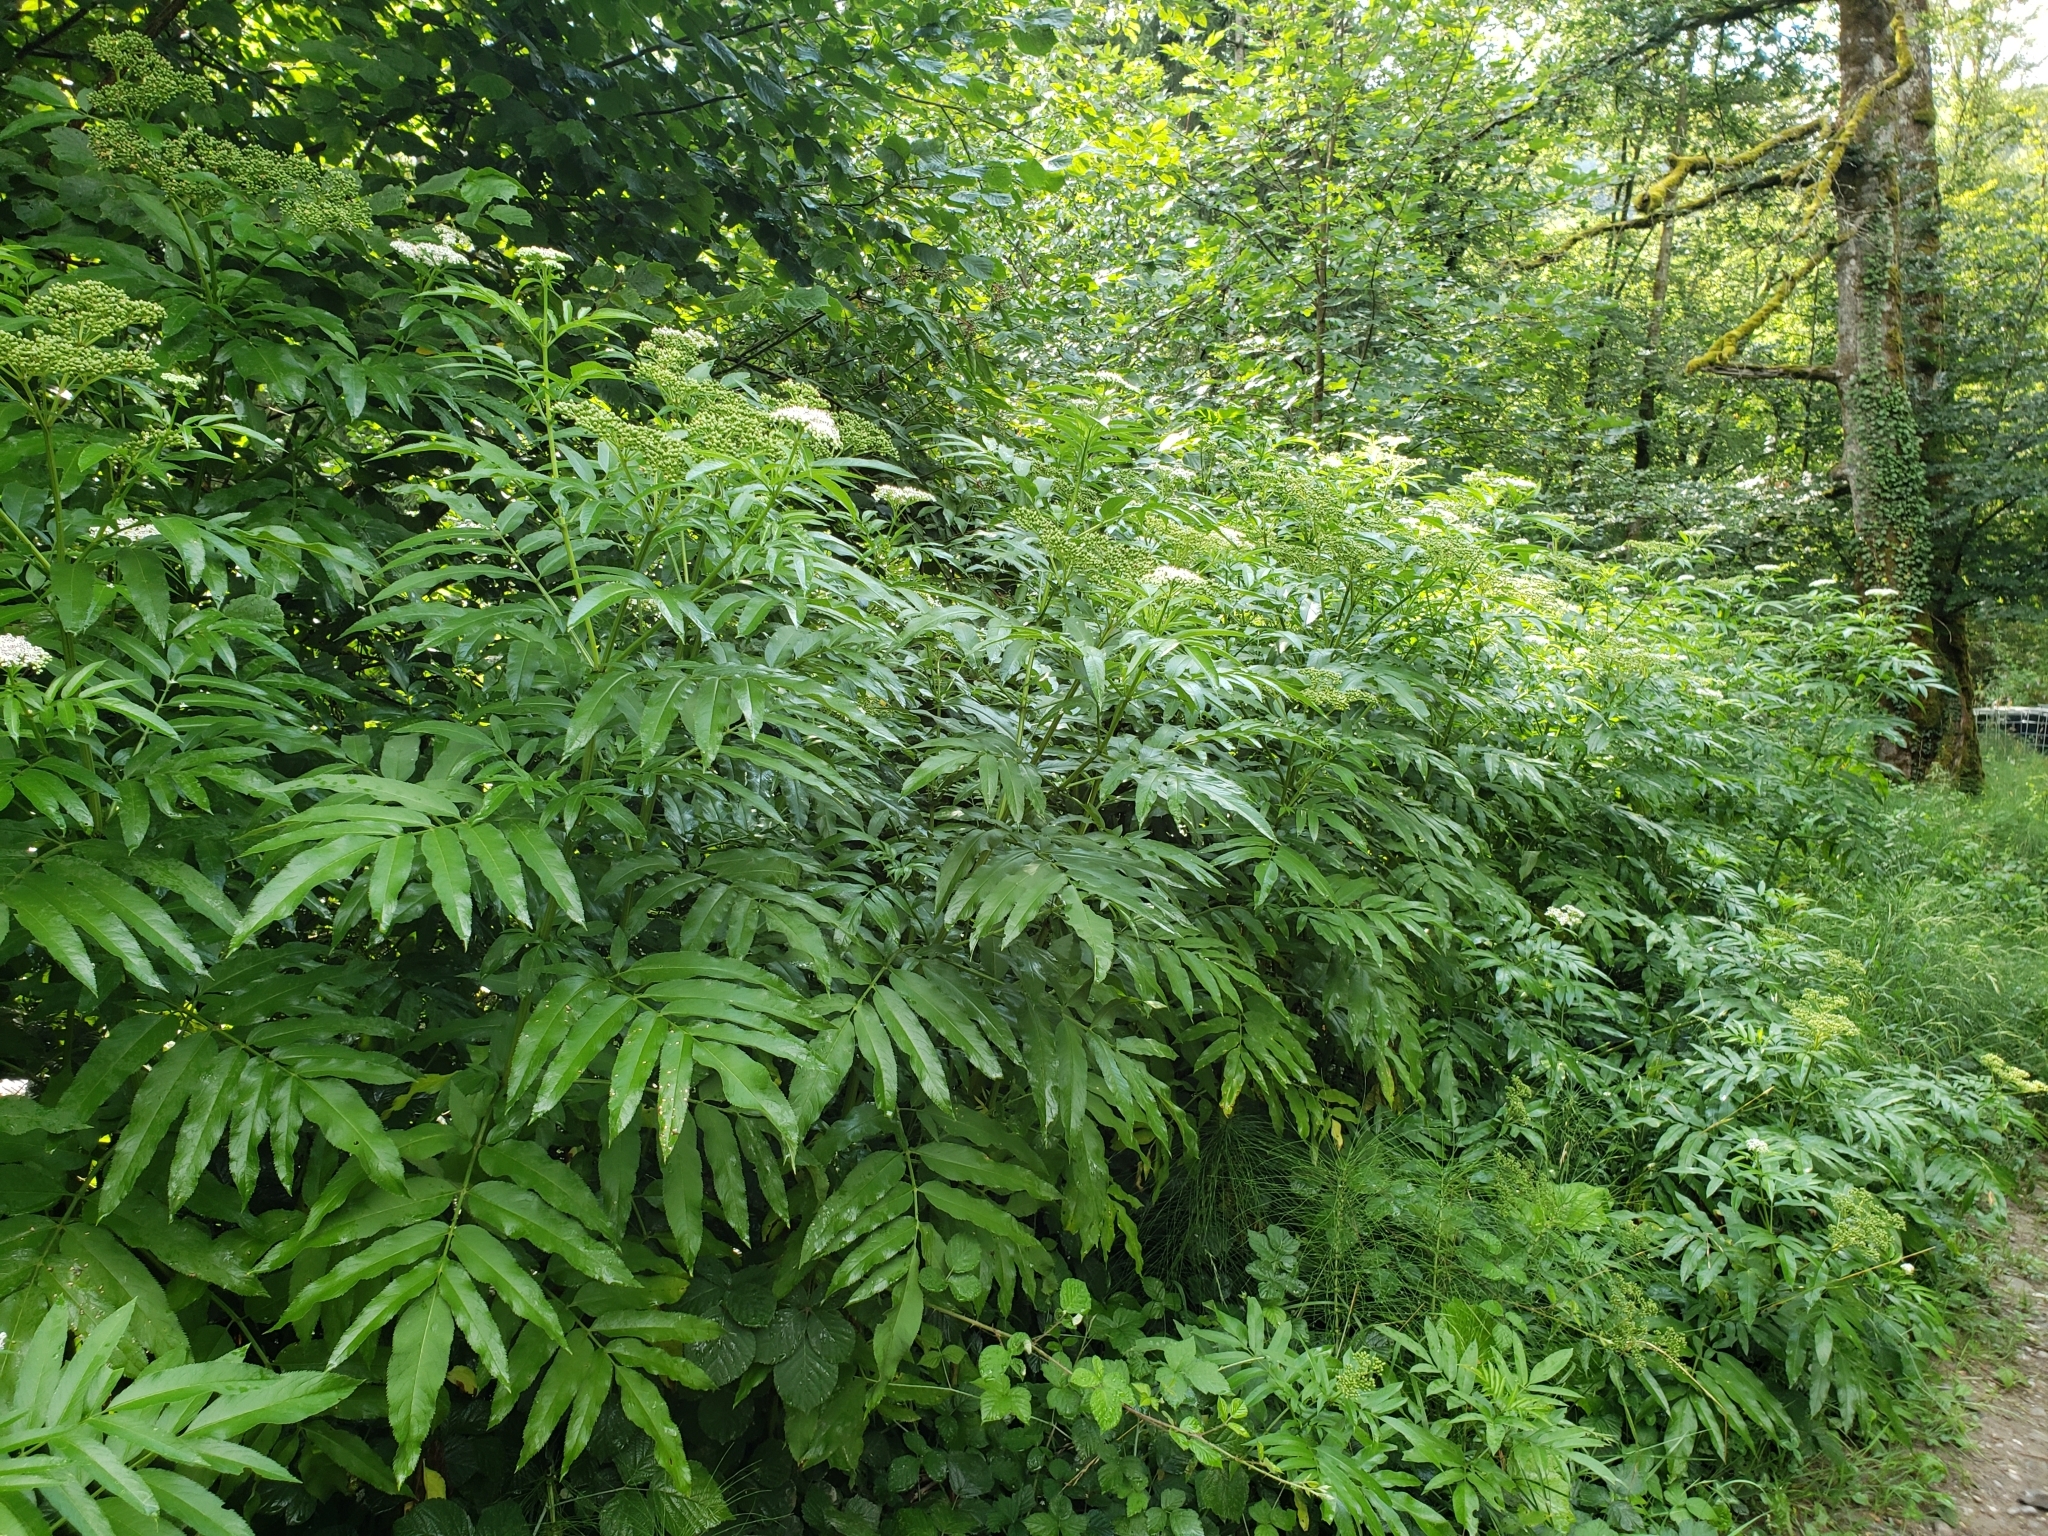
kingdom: Plantae
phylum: Tracheophyta
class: Magnoliopsida
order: Dipsacales
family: Viburnaceae
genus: Sambucus
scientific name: Sambucus ebulus
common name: Dwarf elder
